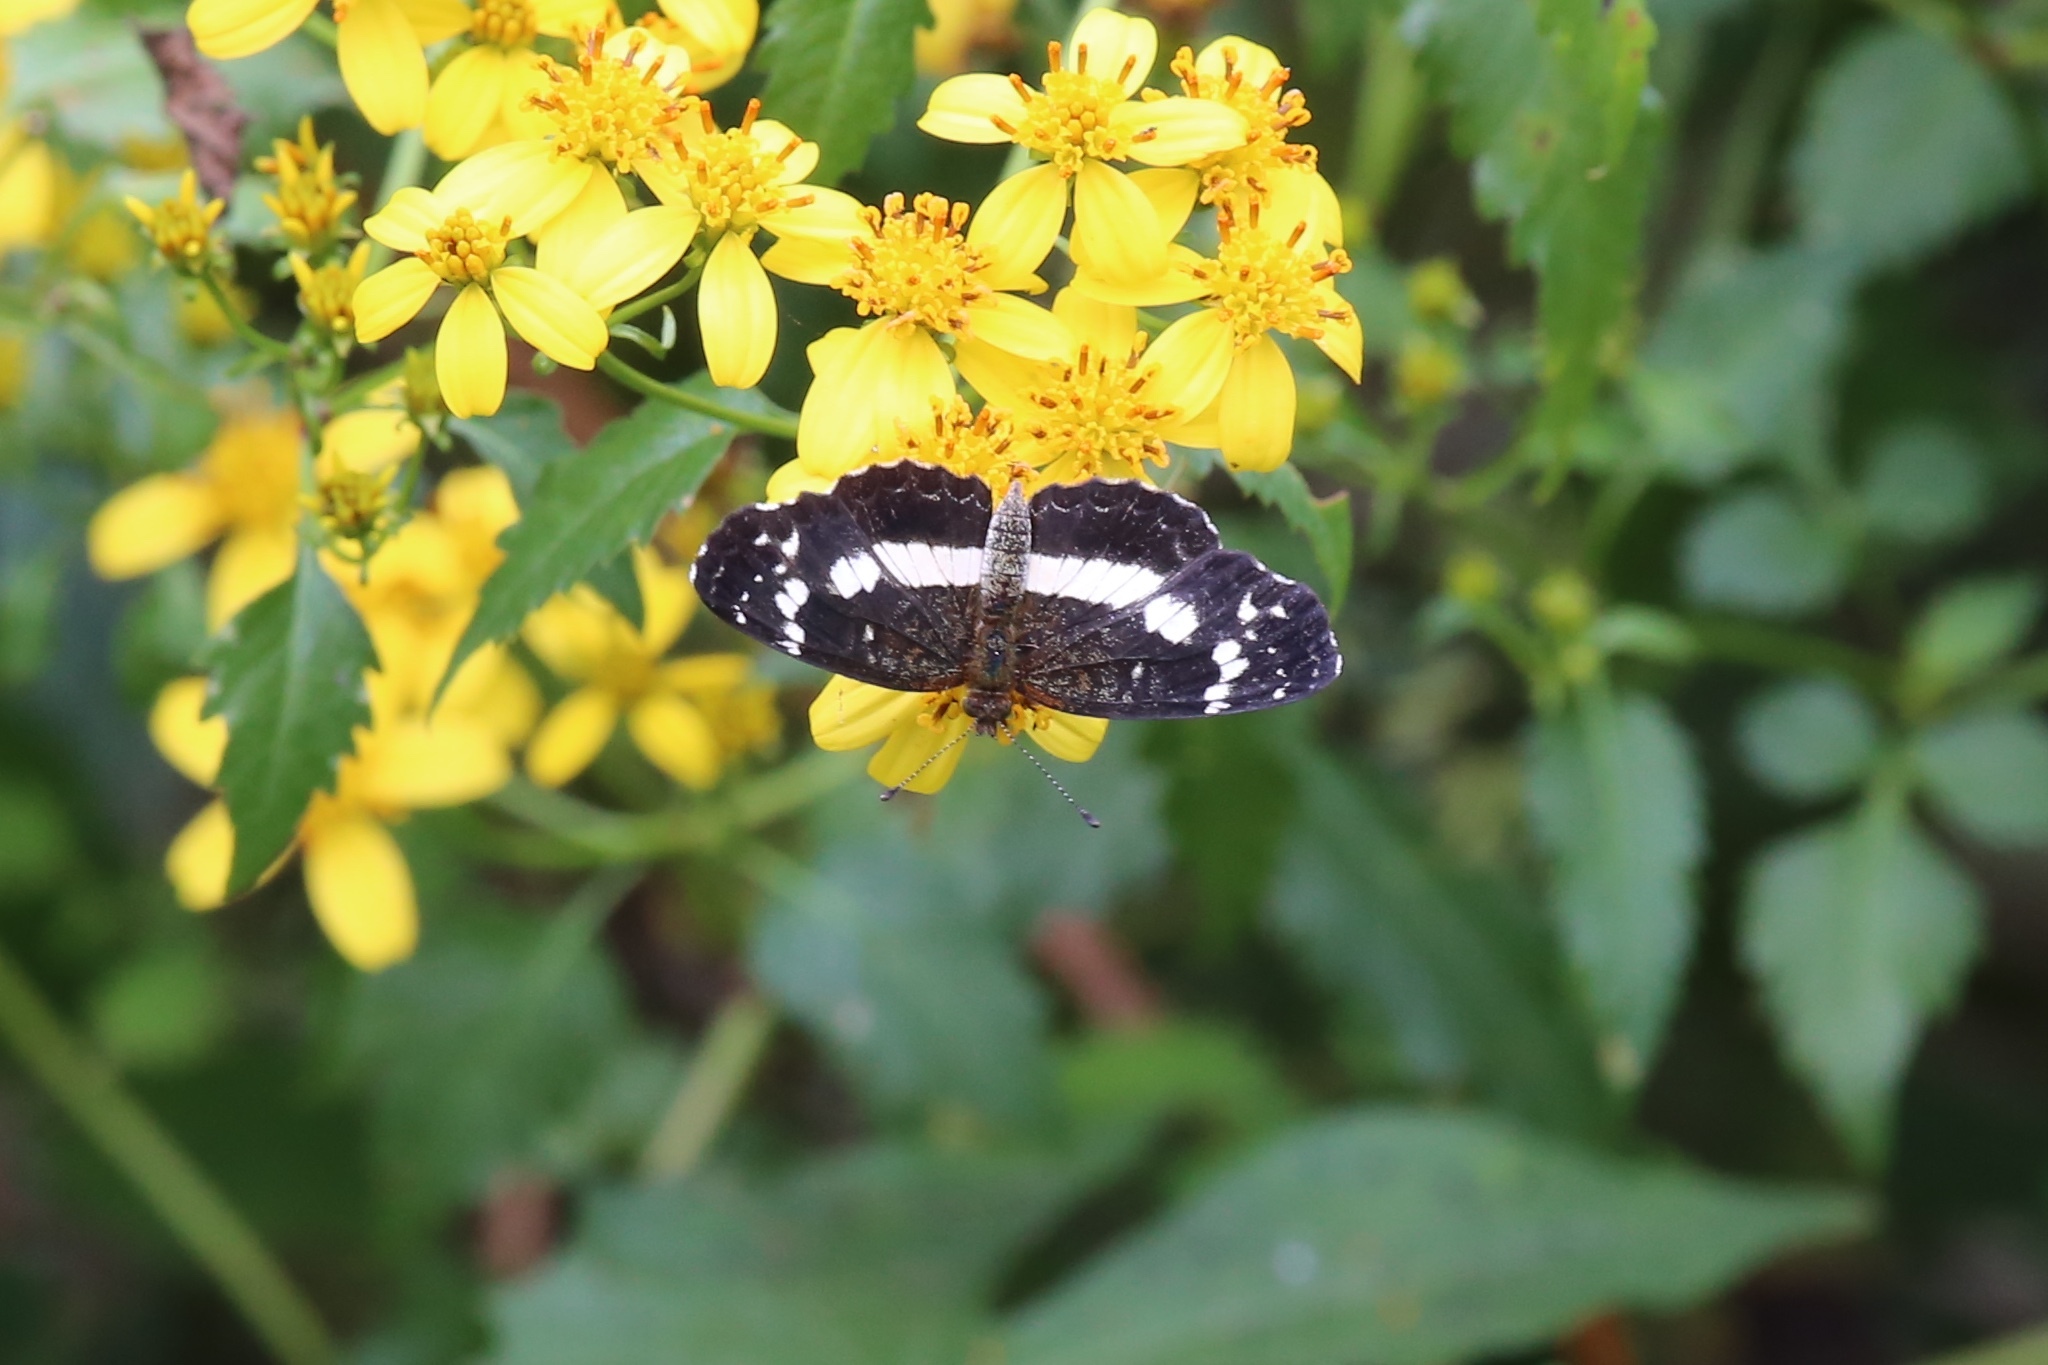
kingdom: Animalia
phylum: Arthropoda
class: Insecta
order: Lepidoptera
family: Nymphalidae
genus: Castilia
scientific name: Castilia myia
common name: Mayan crescent
